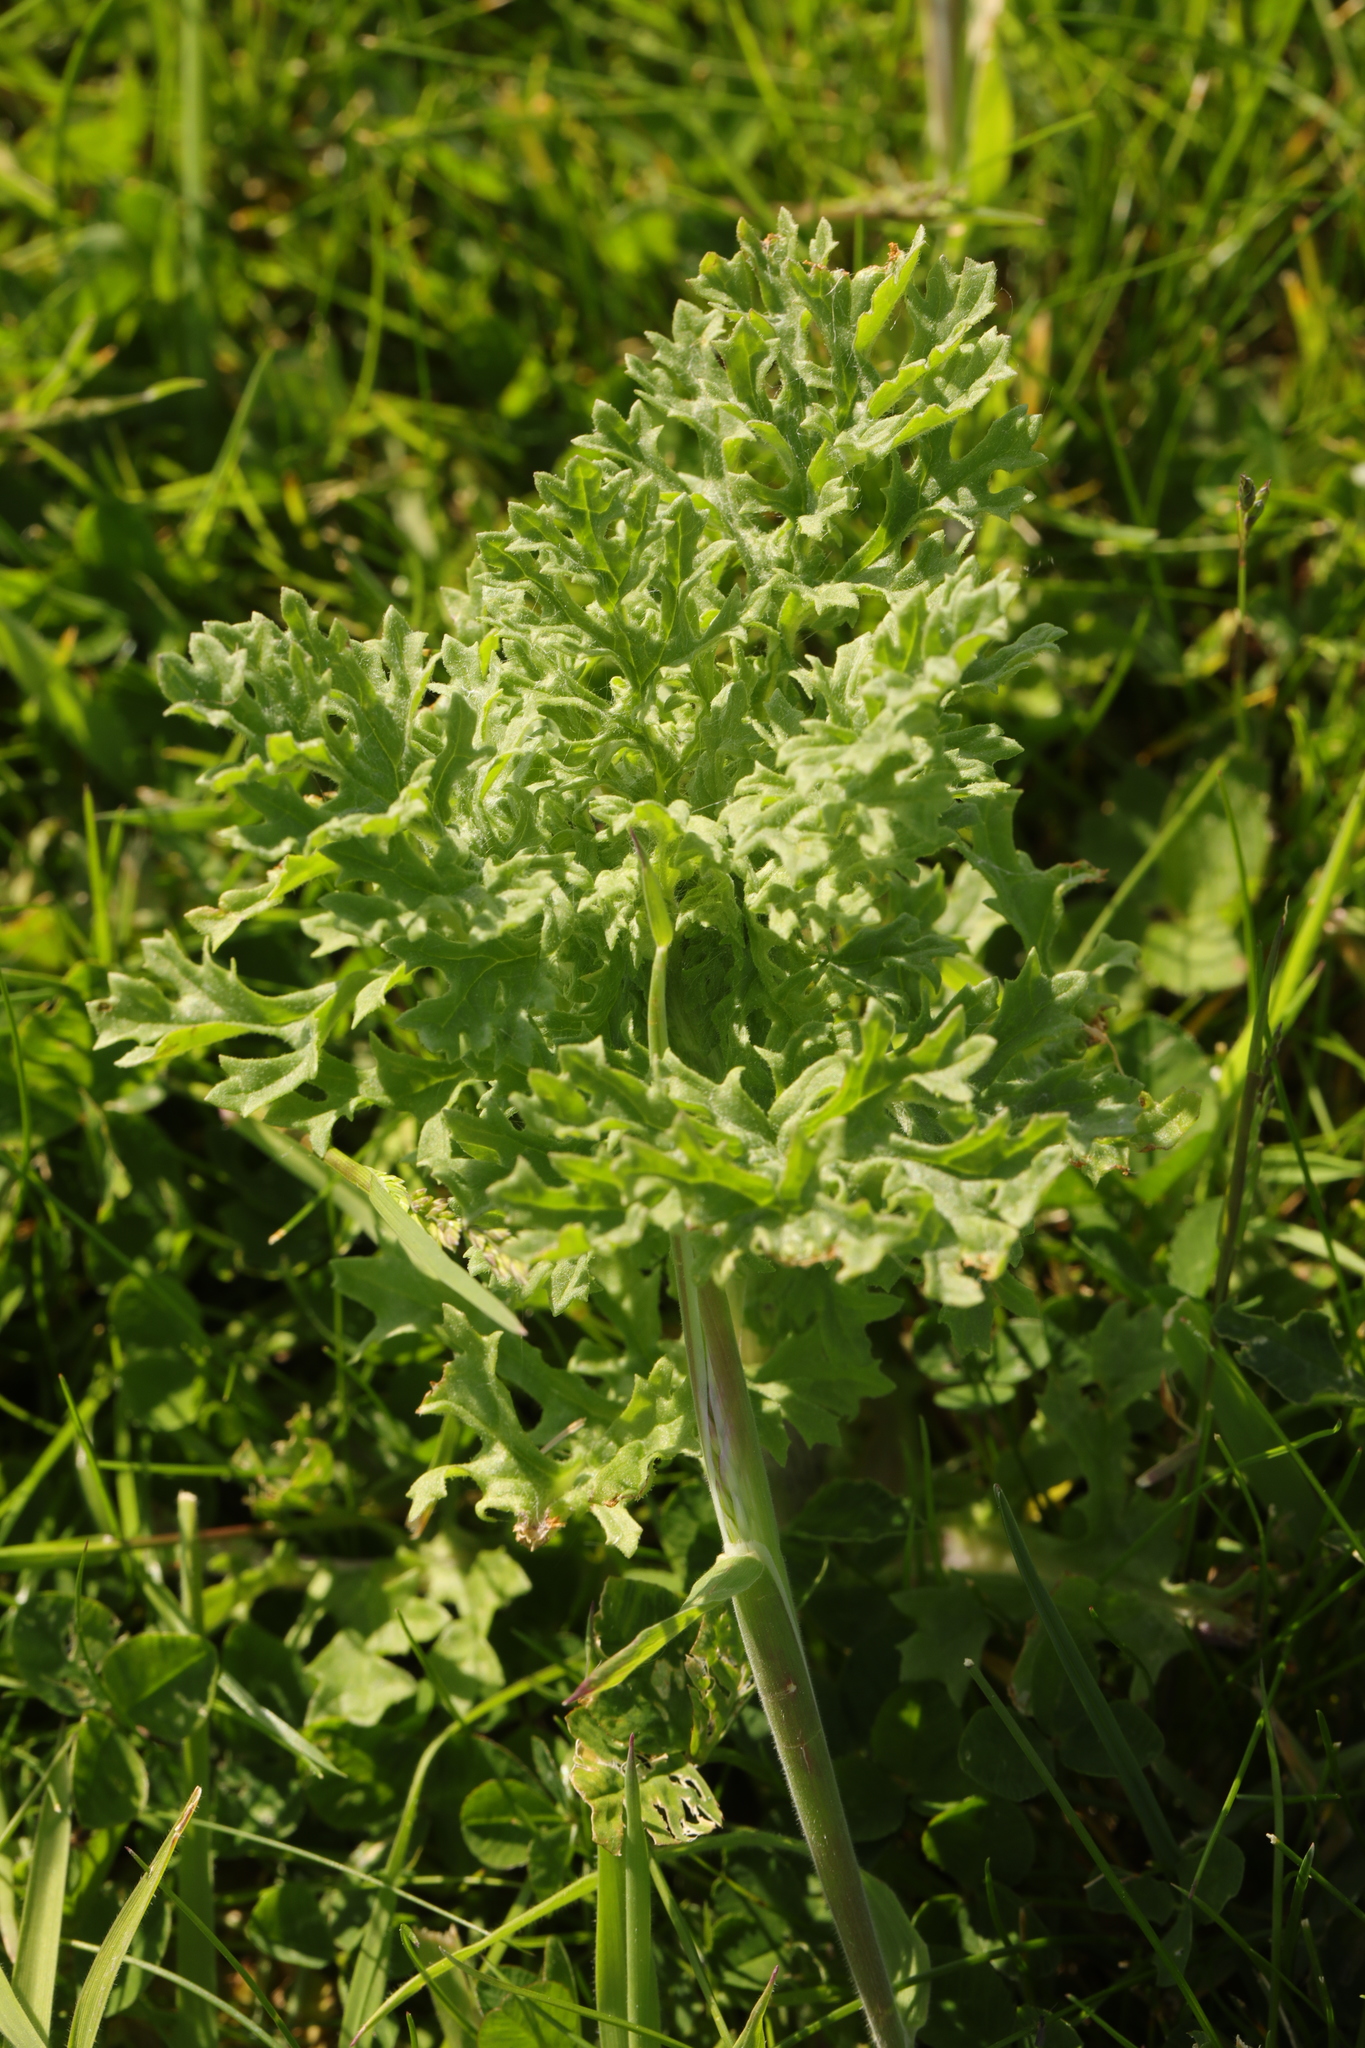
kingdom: Plantae
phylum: Tracheophyta
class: Magnoliopsida
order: Asterales
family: Asteraceae
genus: Jacobaea
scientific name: Jacobaea vulgaris
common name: Stinking willie
